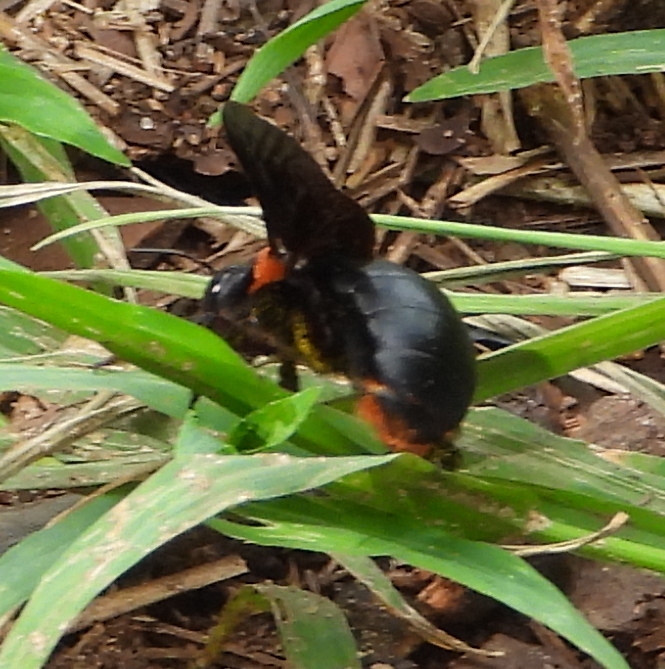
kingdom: Animalia
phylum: Arthropoda
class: Insecta
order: Hymenoptera
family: Apidae
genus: Xylocopa
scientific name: Xylocopa flavorufa
